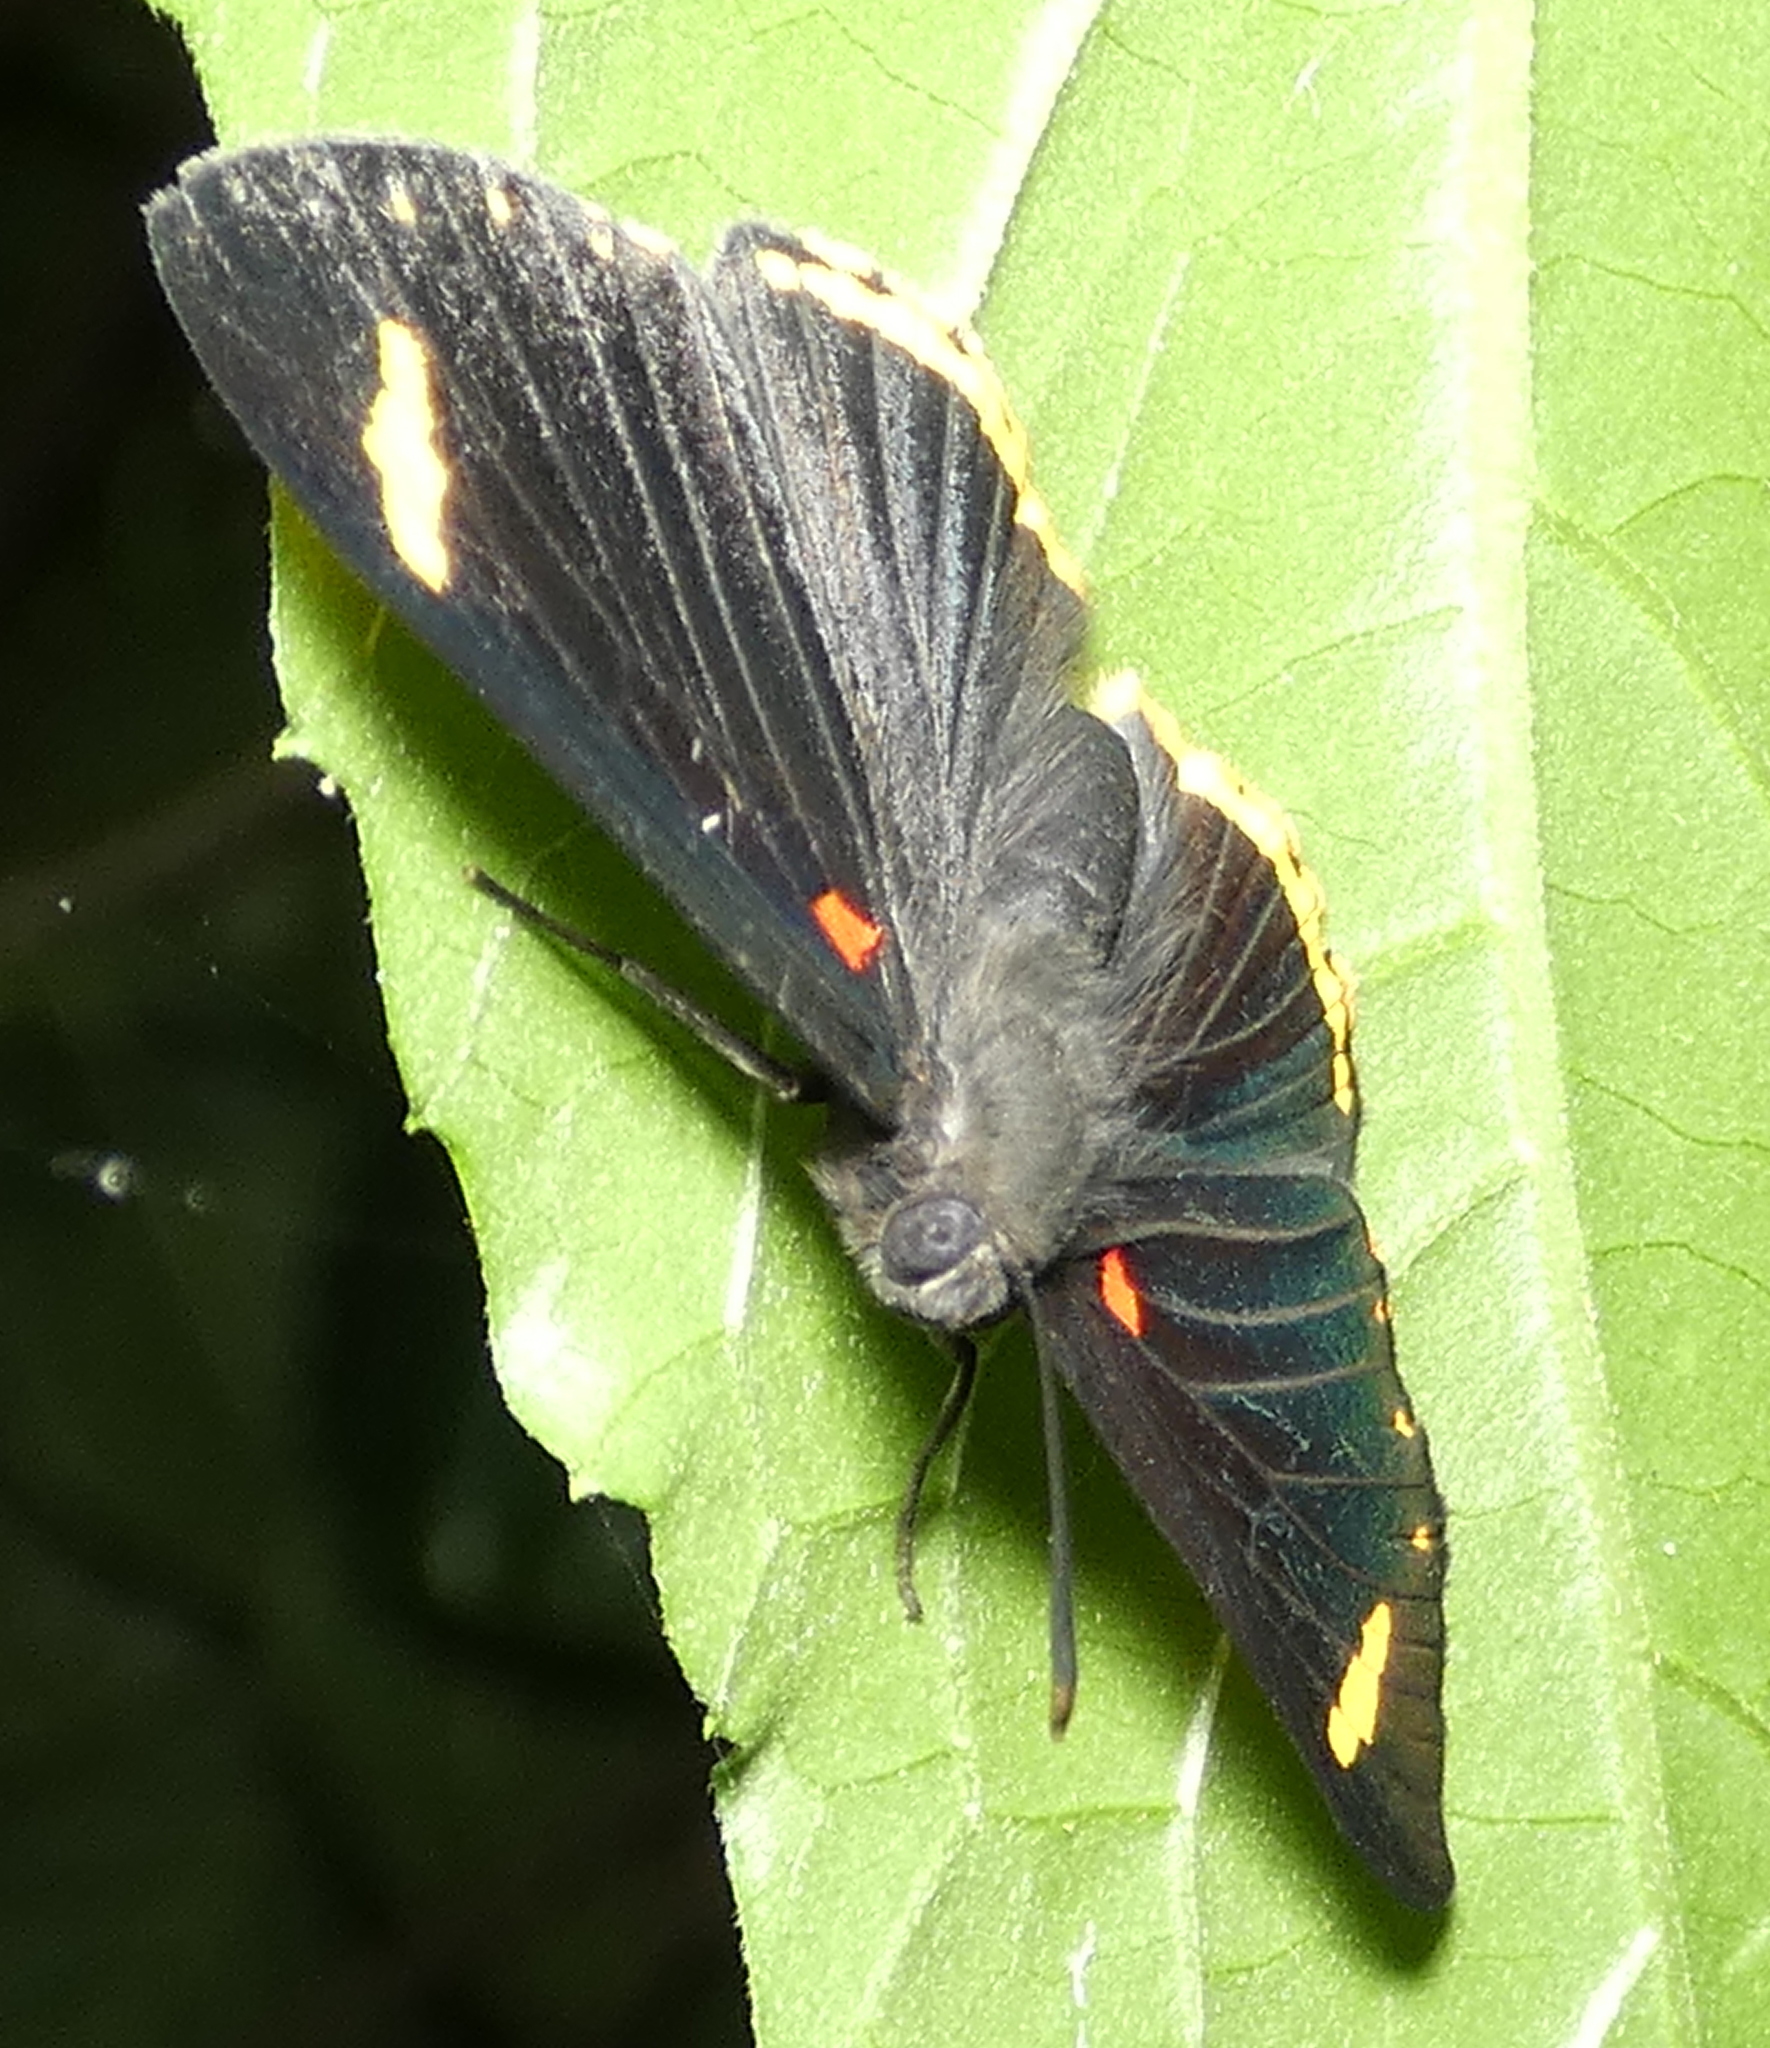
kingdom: Animalia
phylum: Arthropoda
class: Insecta
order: Lepidoptera
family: Lycaenidae
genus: Melanis
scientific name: Melanis xenia
